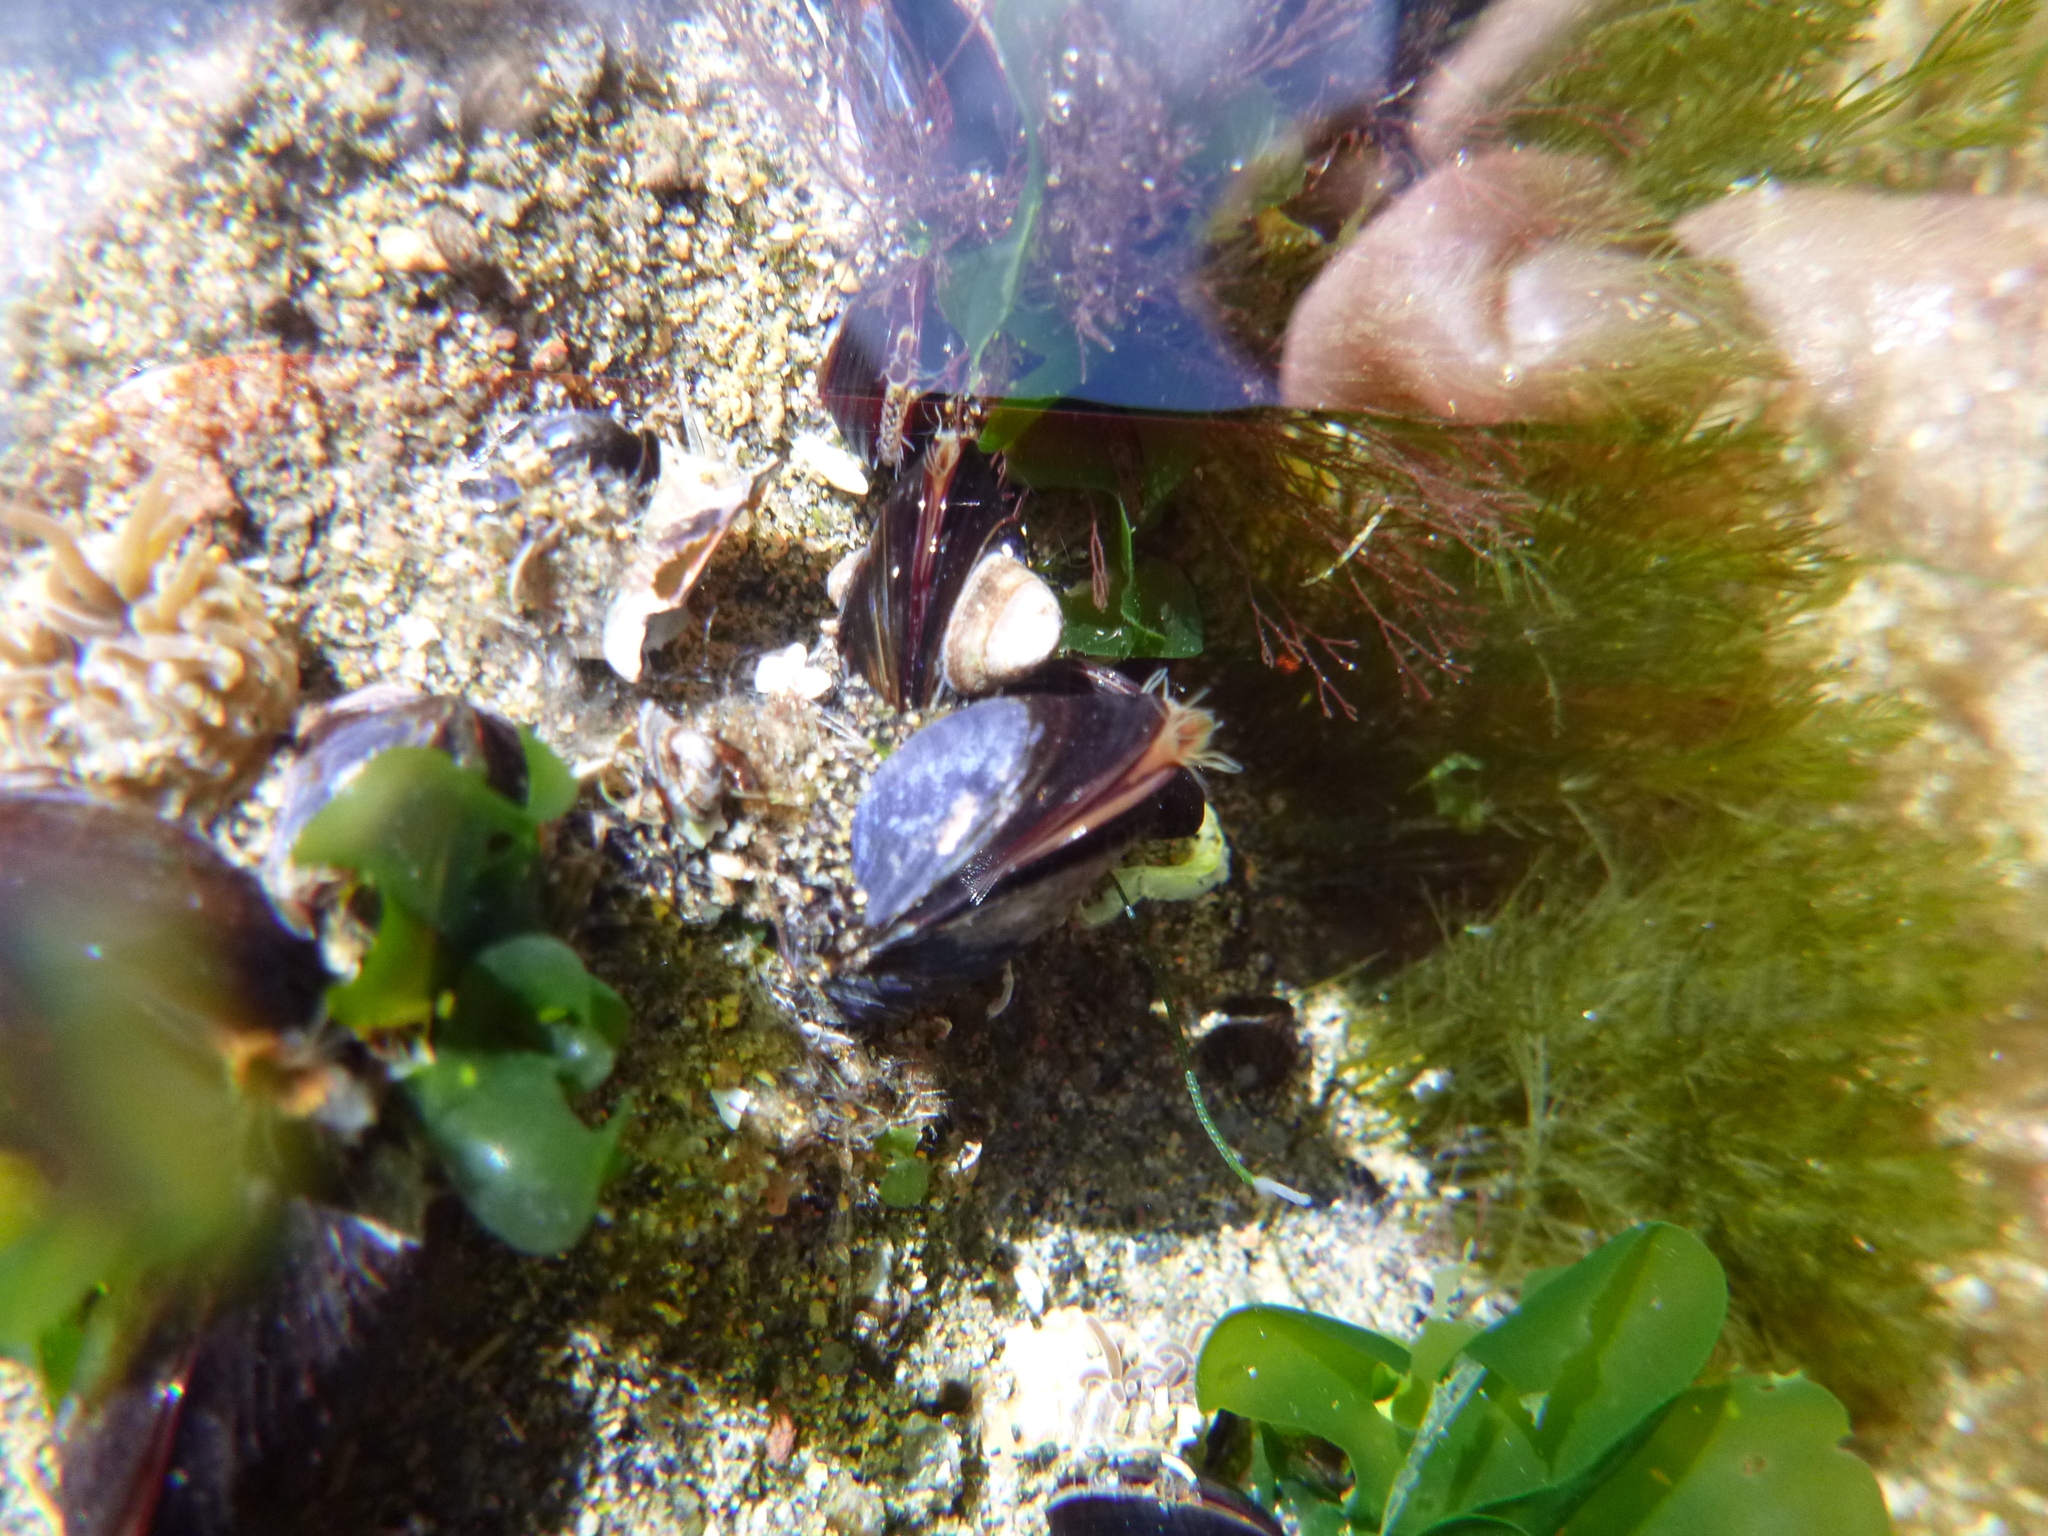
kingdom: Animalia
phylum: Mollusca
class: Bivalvia
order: Mytilida
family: Mytilidae
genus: Perna
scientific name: Perna canaliculus
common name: New zealand greenshelltm
